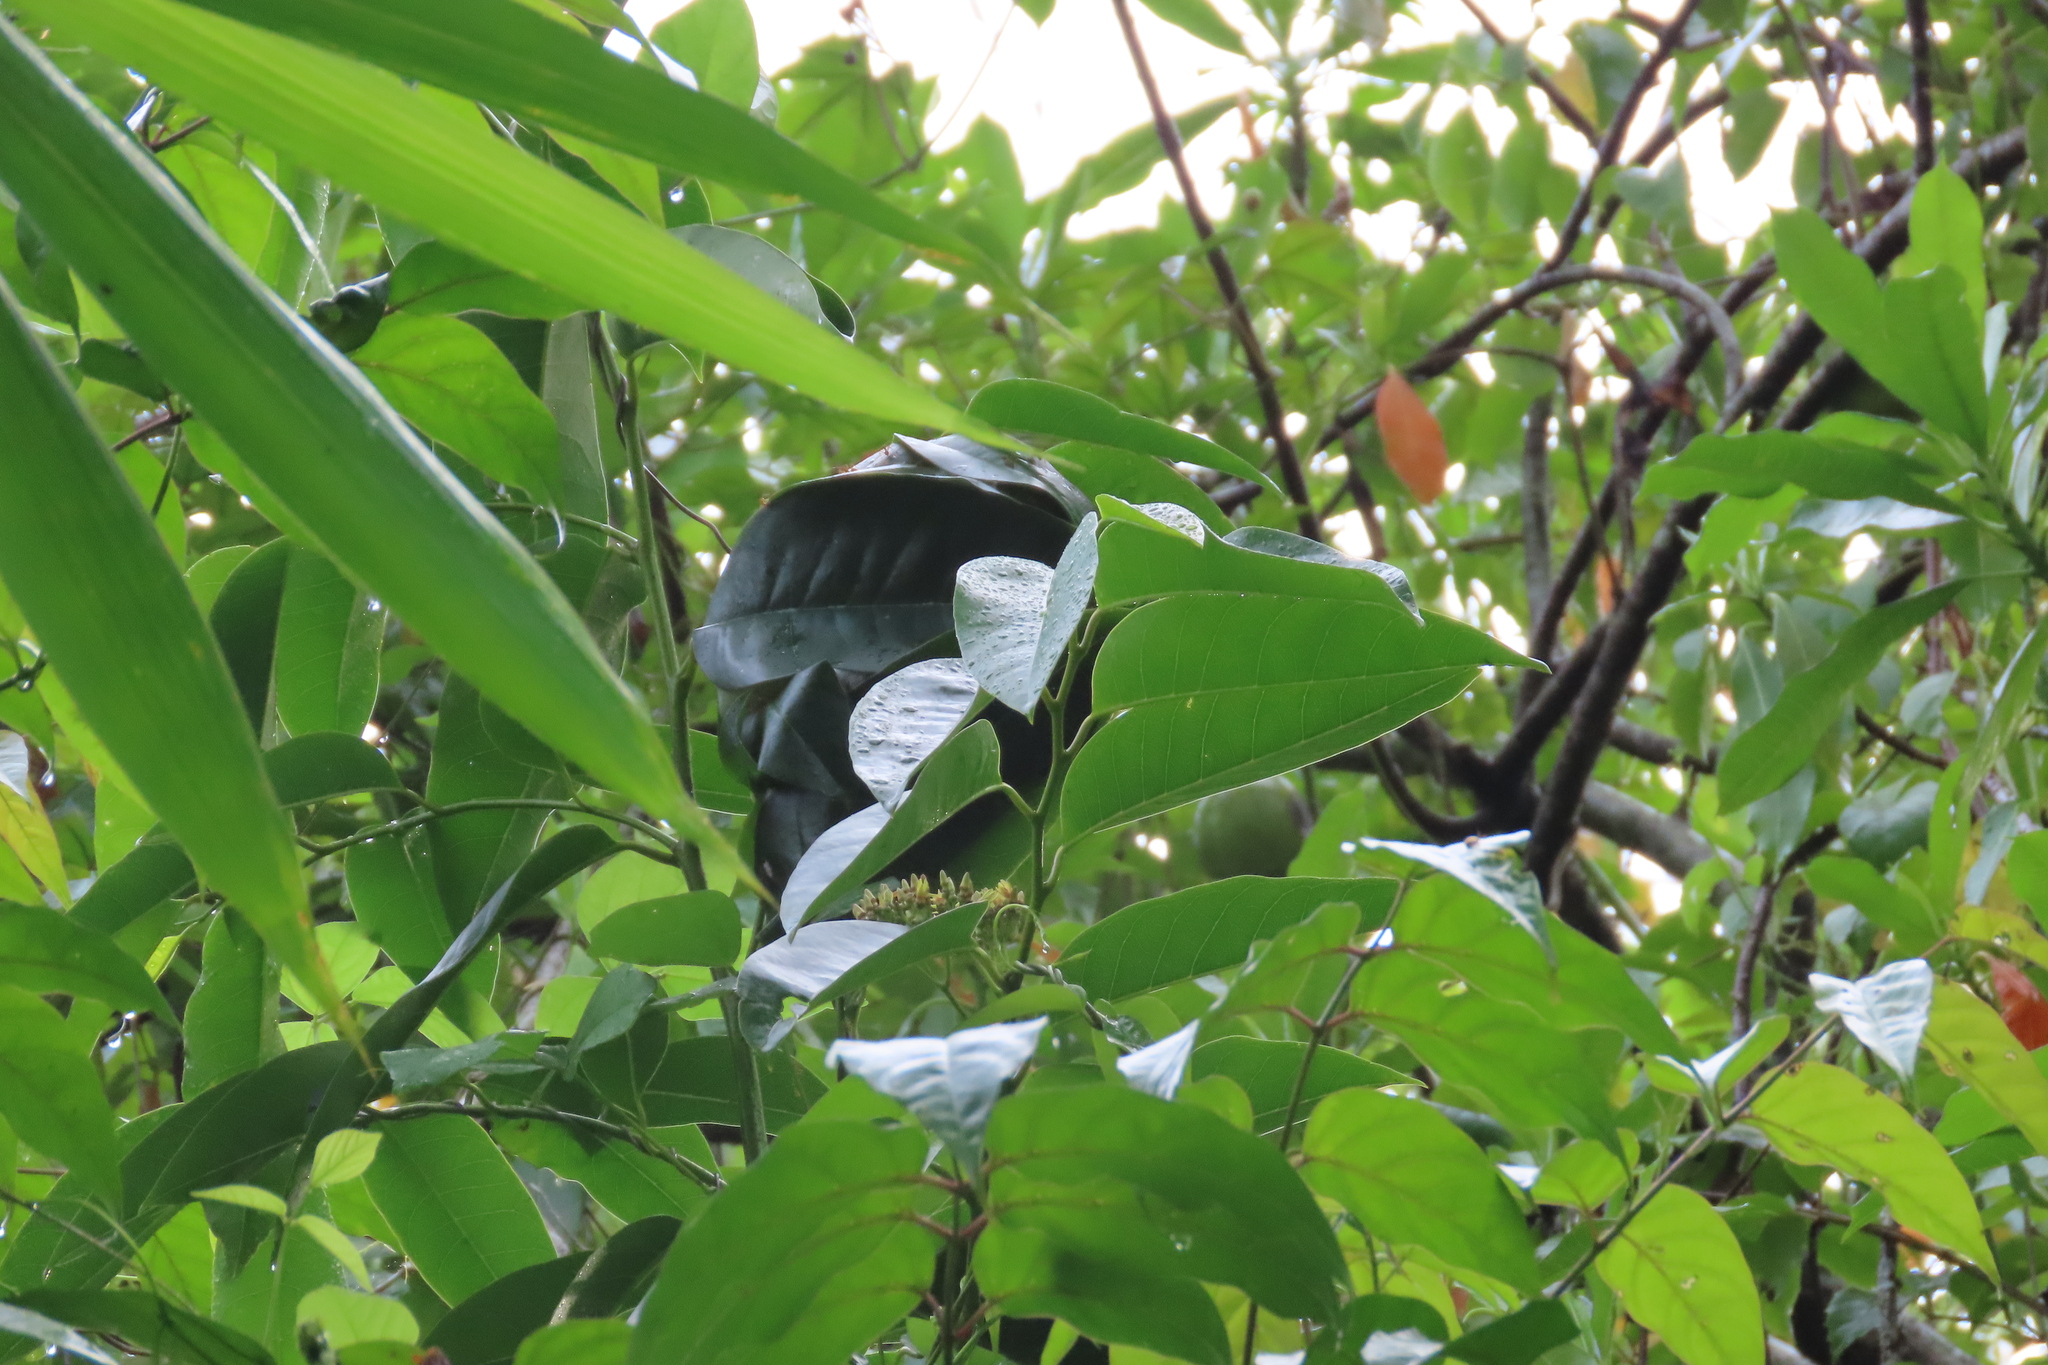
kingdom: Animalia
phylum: Arthropoda
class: Insecta
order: Hymenoptera
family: Formicidae
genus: Oecophylla
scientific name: Oecophylla smaragdina
